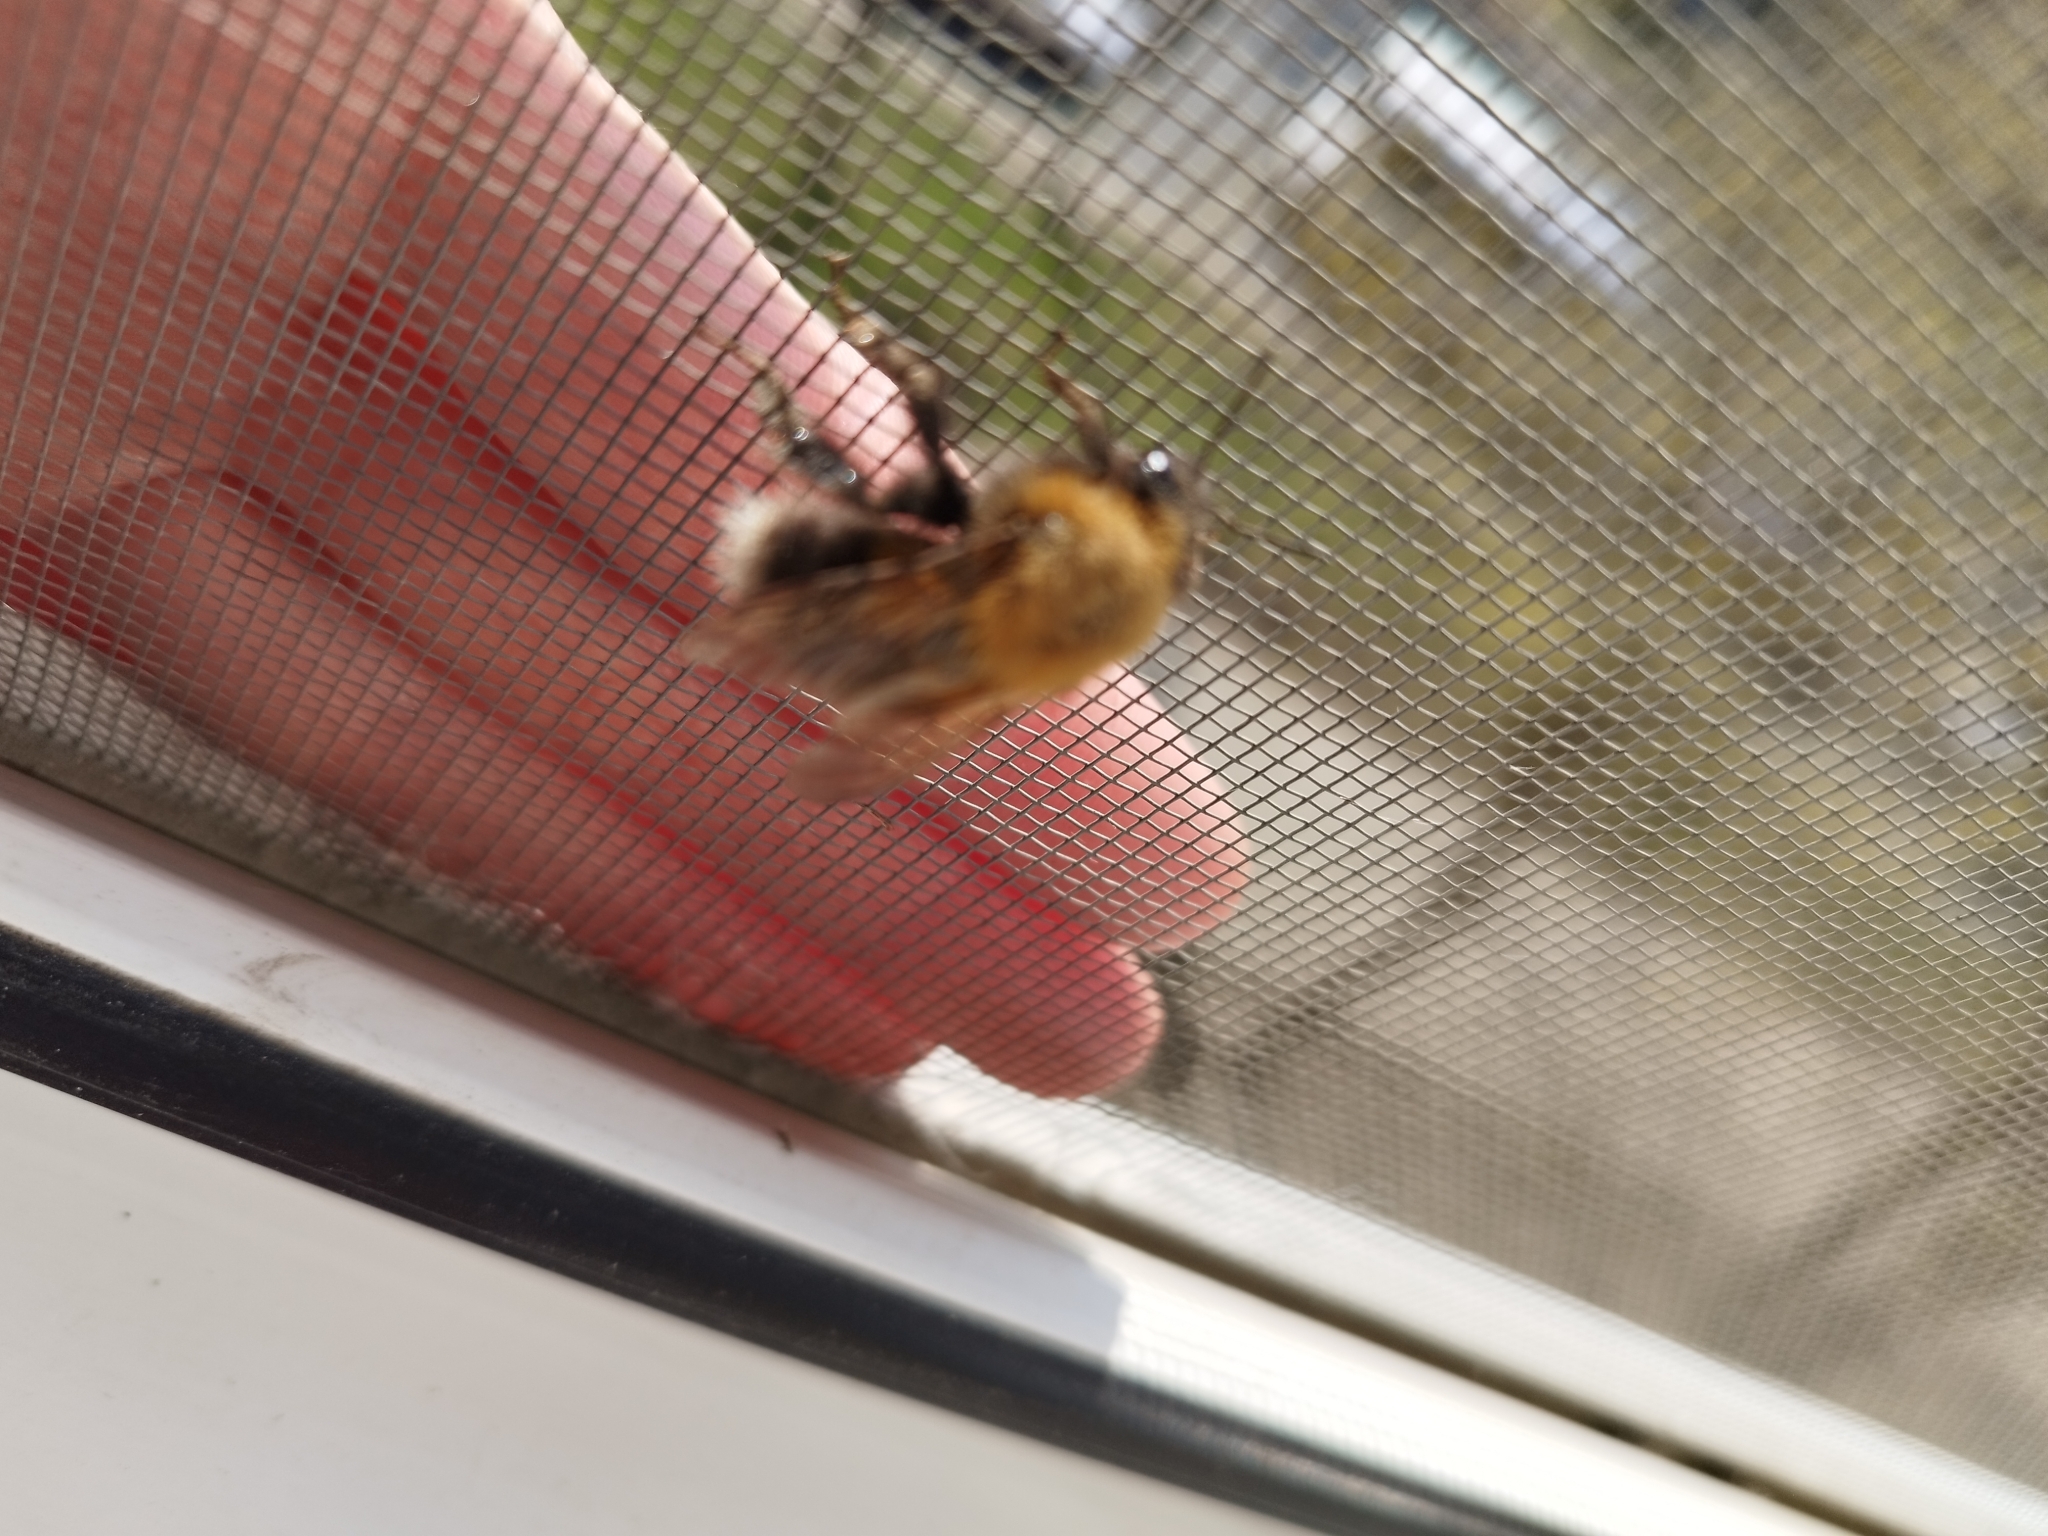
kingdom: Animalia
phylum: Arthropoda
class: Insecta
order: Hymenoptera
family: Apidae
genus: Bombus
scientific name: Bombus hypnorum
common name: New garden bumblebee
